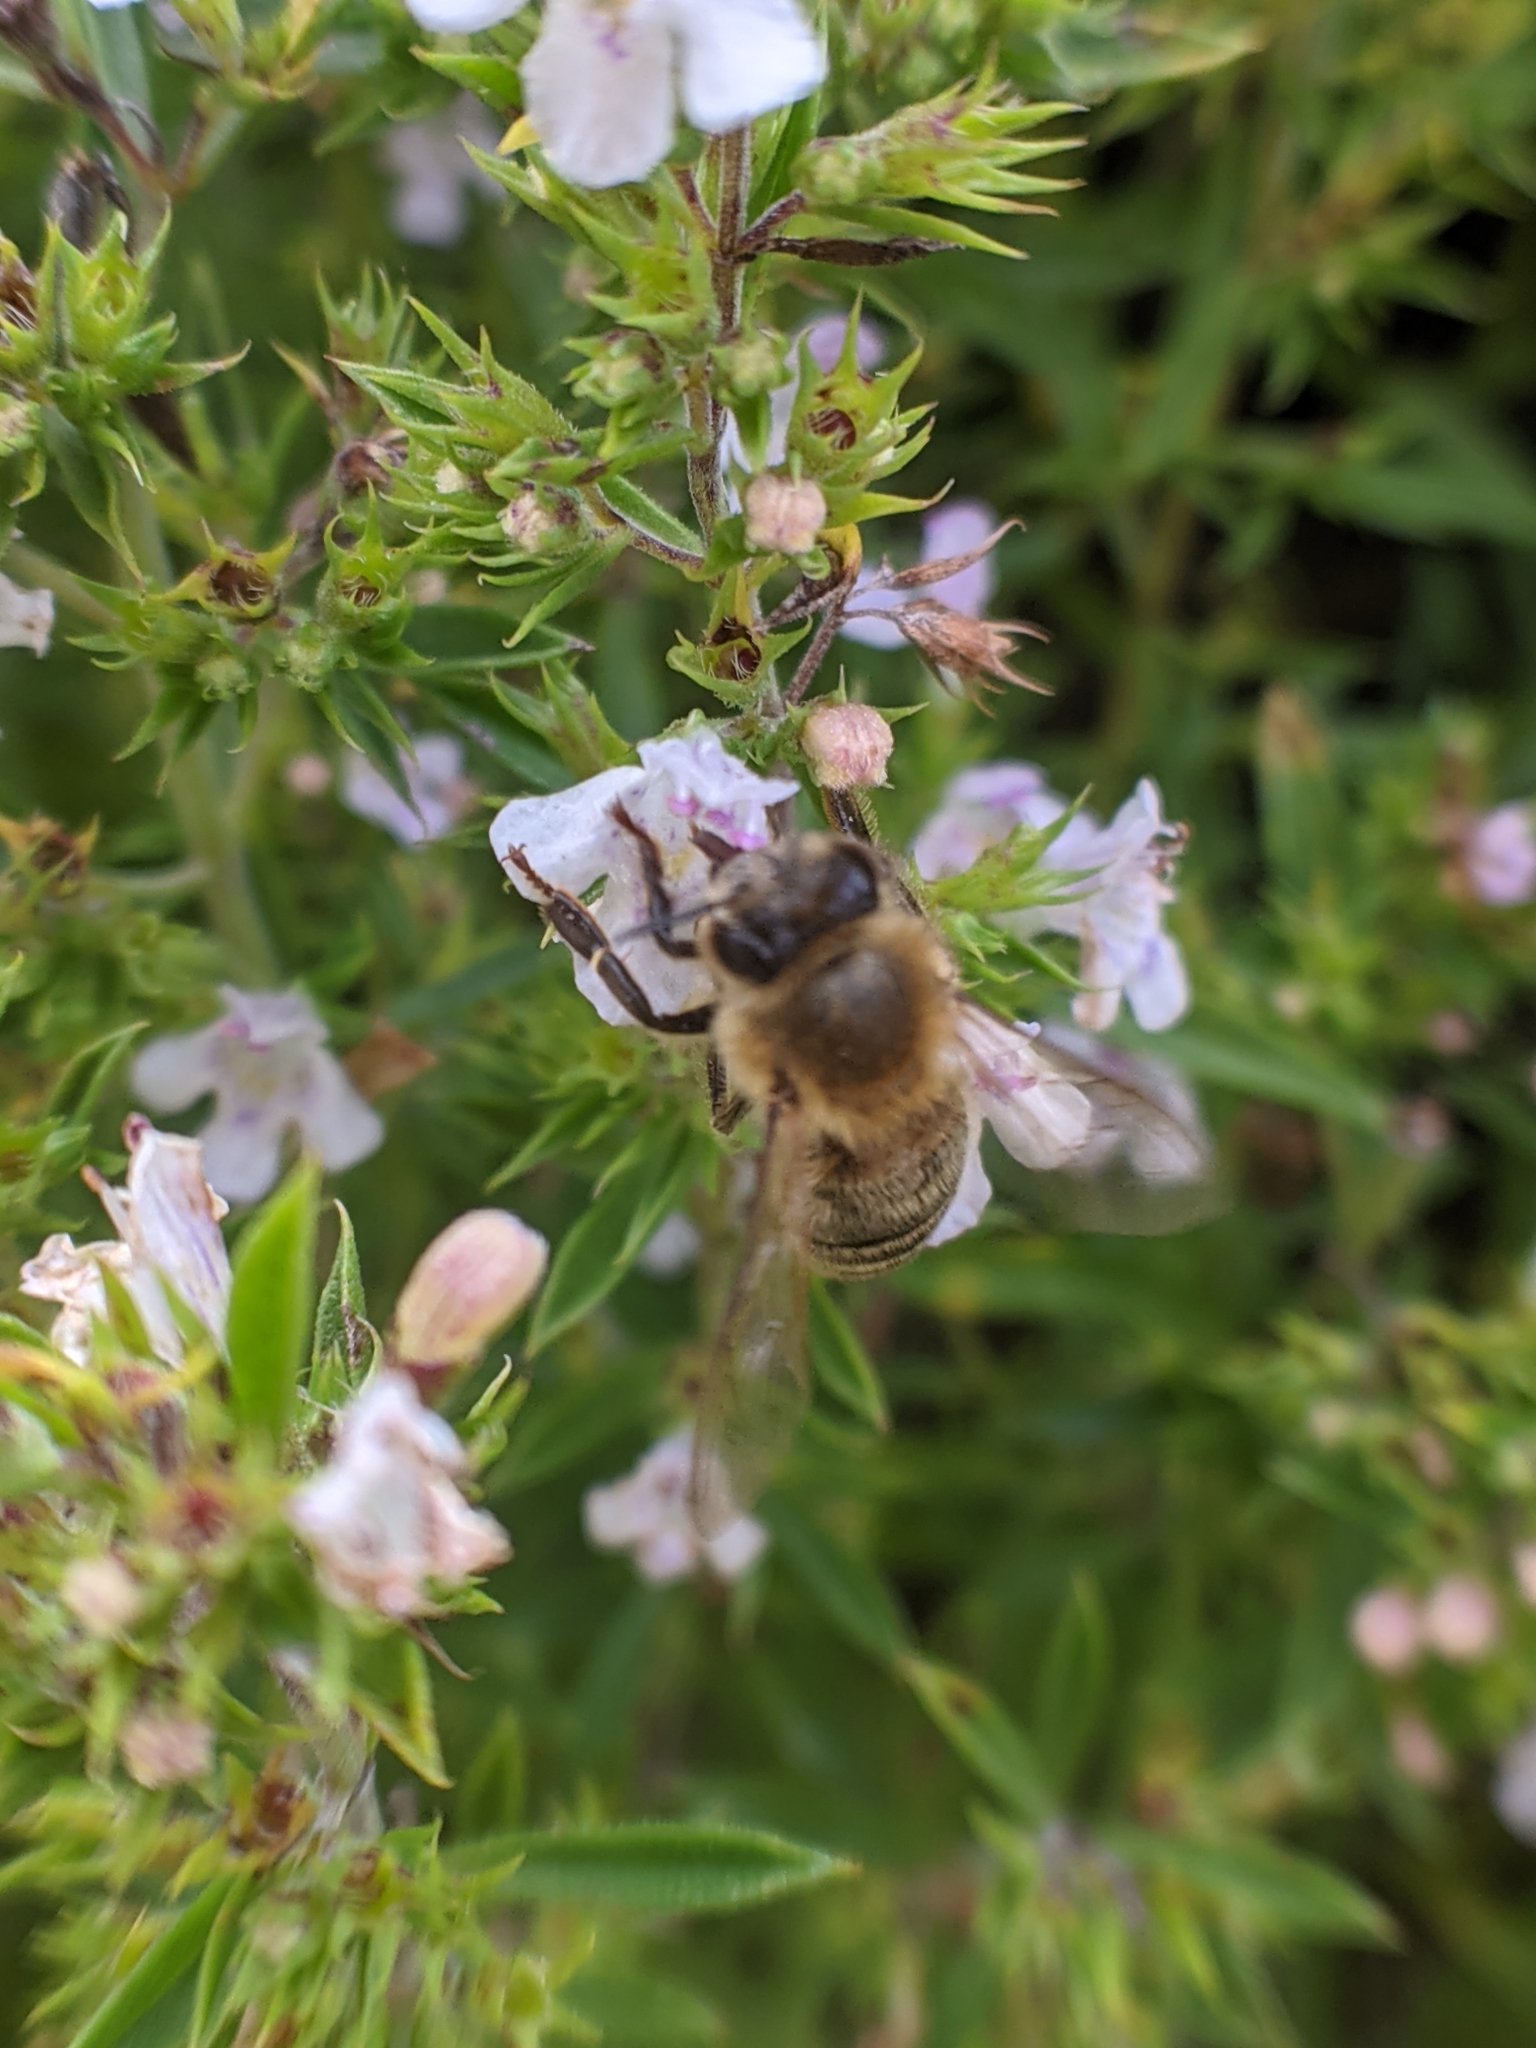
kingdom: Animalia
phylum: Arthropoda
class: Insecta
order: Hymenoptera
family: Apidae
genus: Apis
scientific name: Apis mellifera
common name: Honey bee
